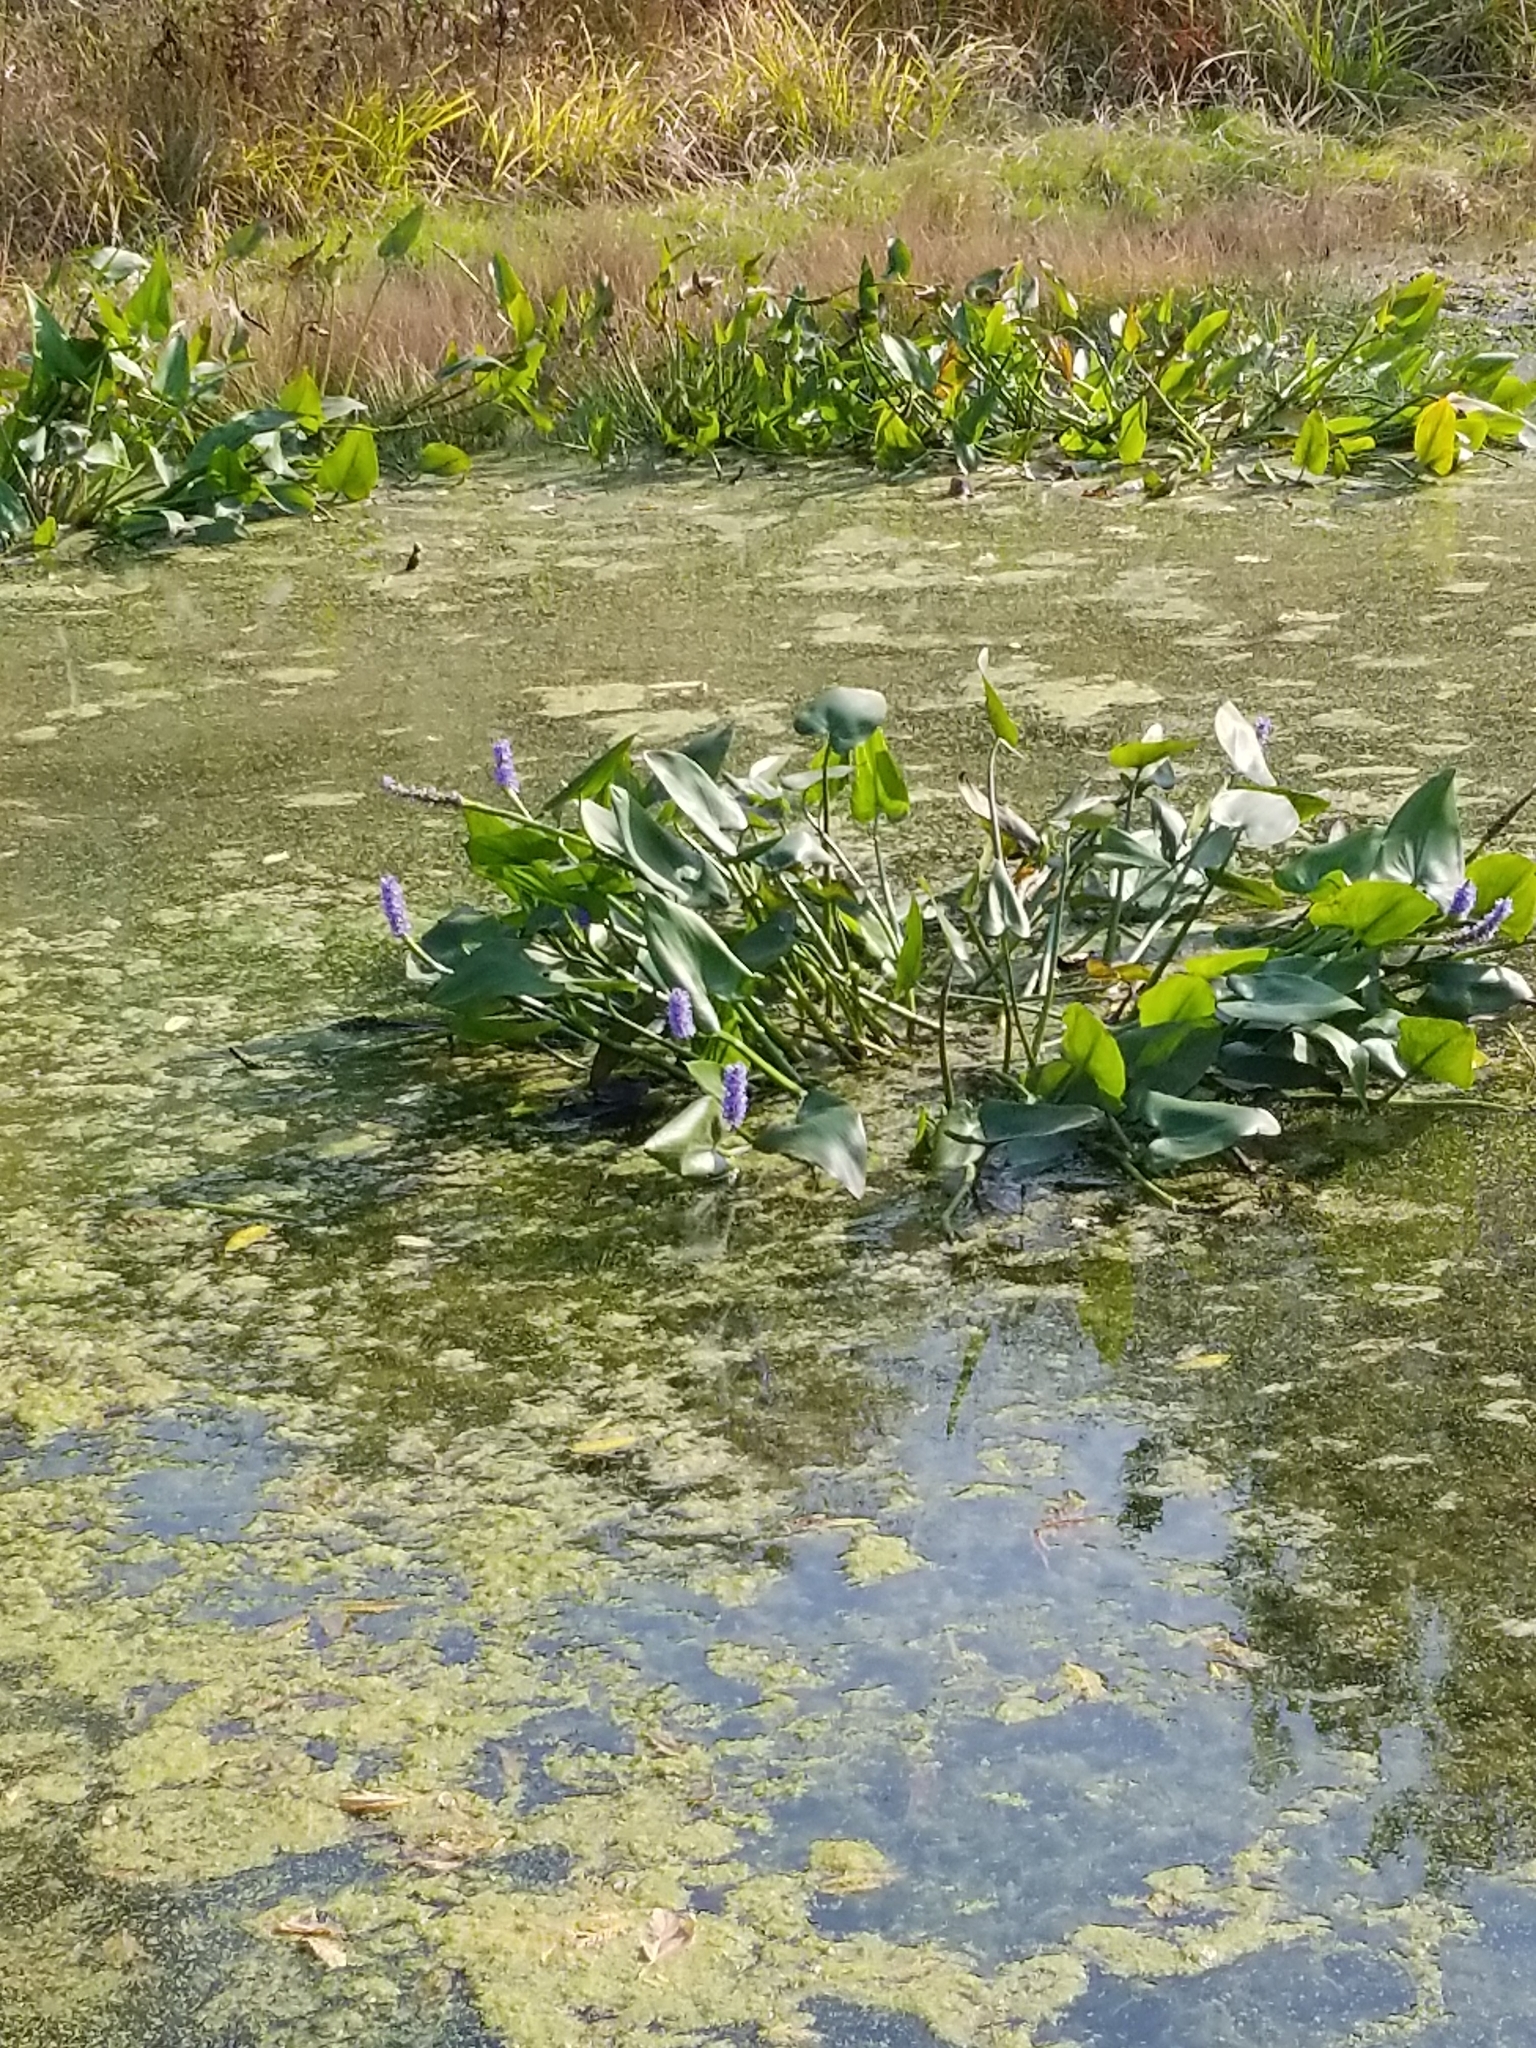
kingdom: Plantae
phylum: Tracheophyta
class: Liliopsida
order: Commelinales
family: Pontederiaceae
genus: Pontederia
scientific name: Pontederia cordata
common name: Pickerelweed
